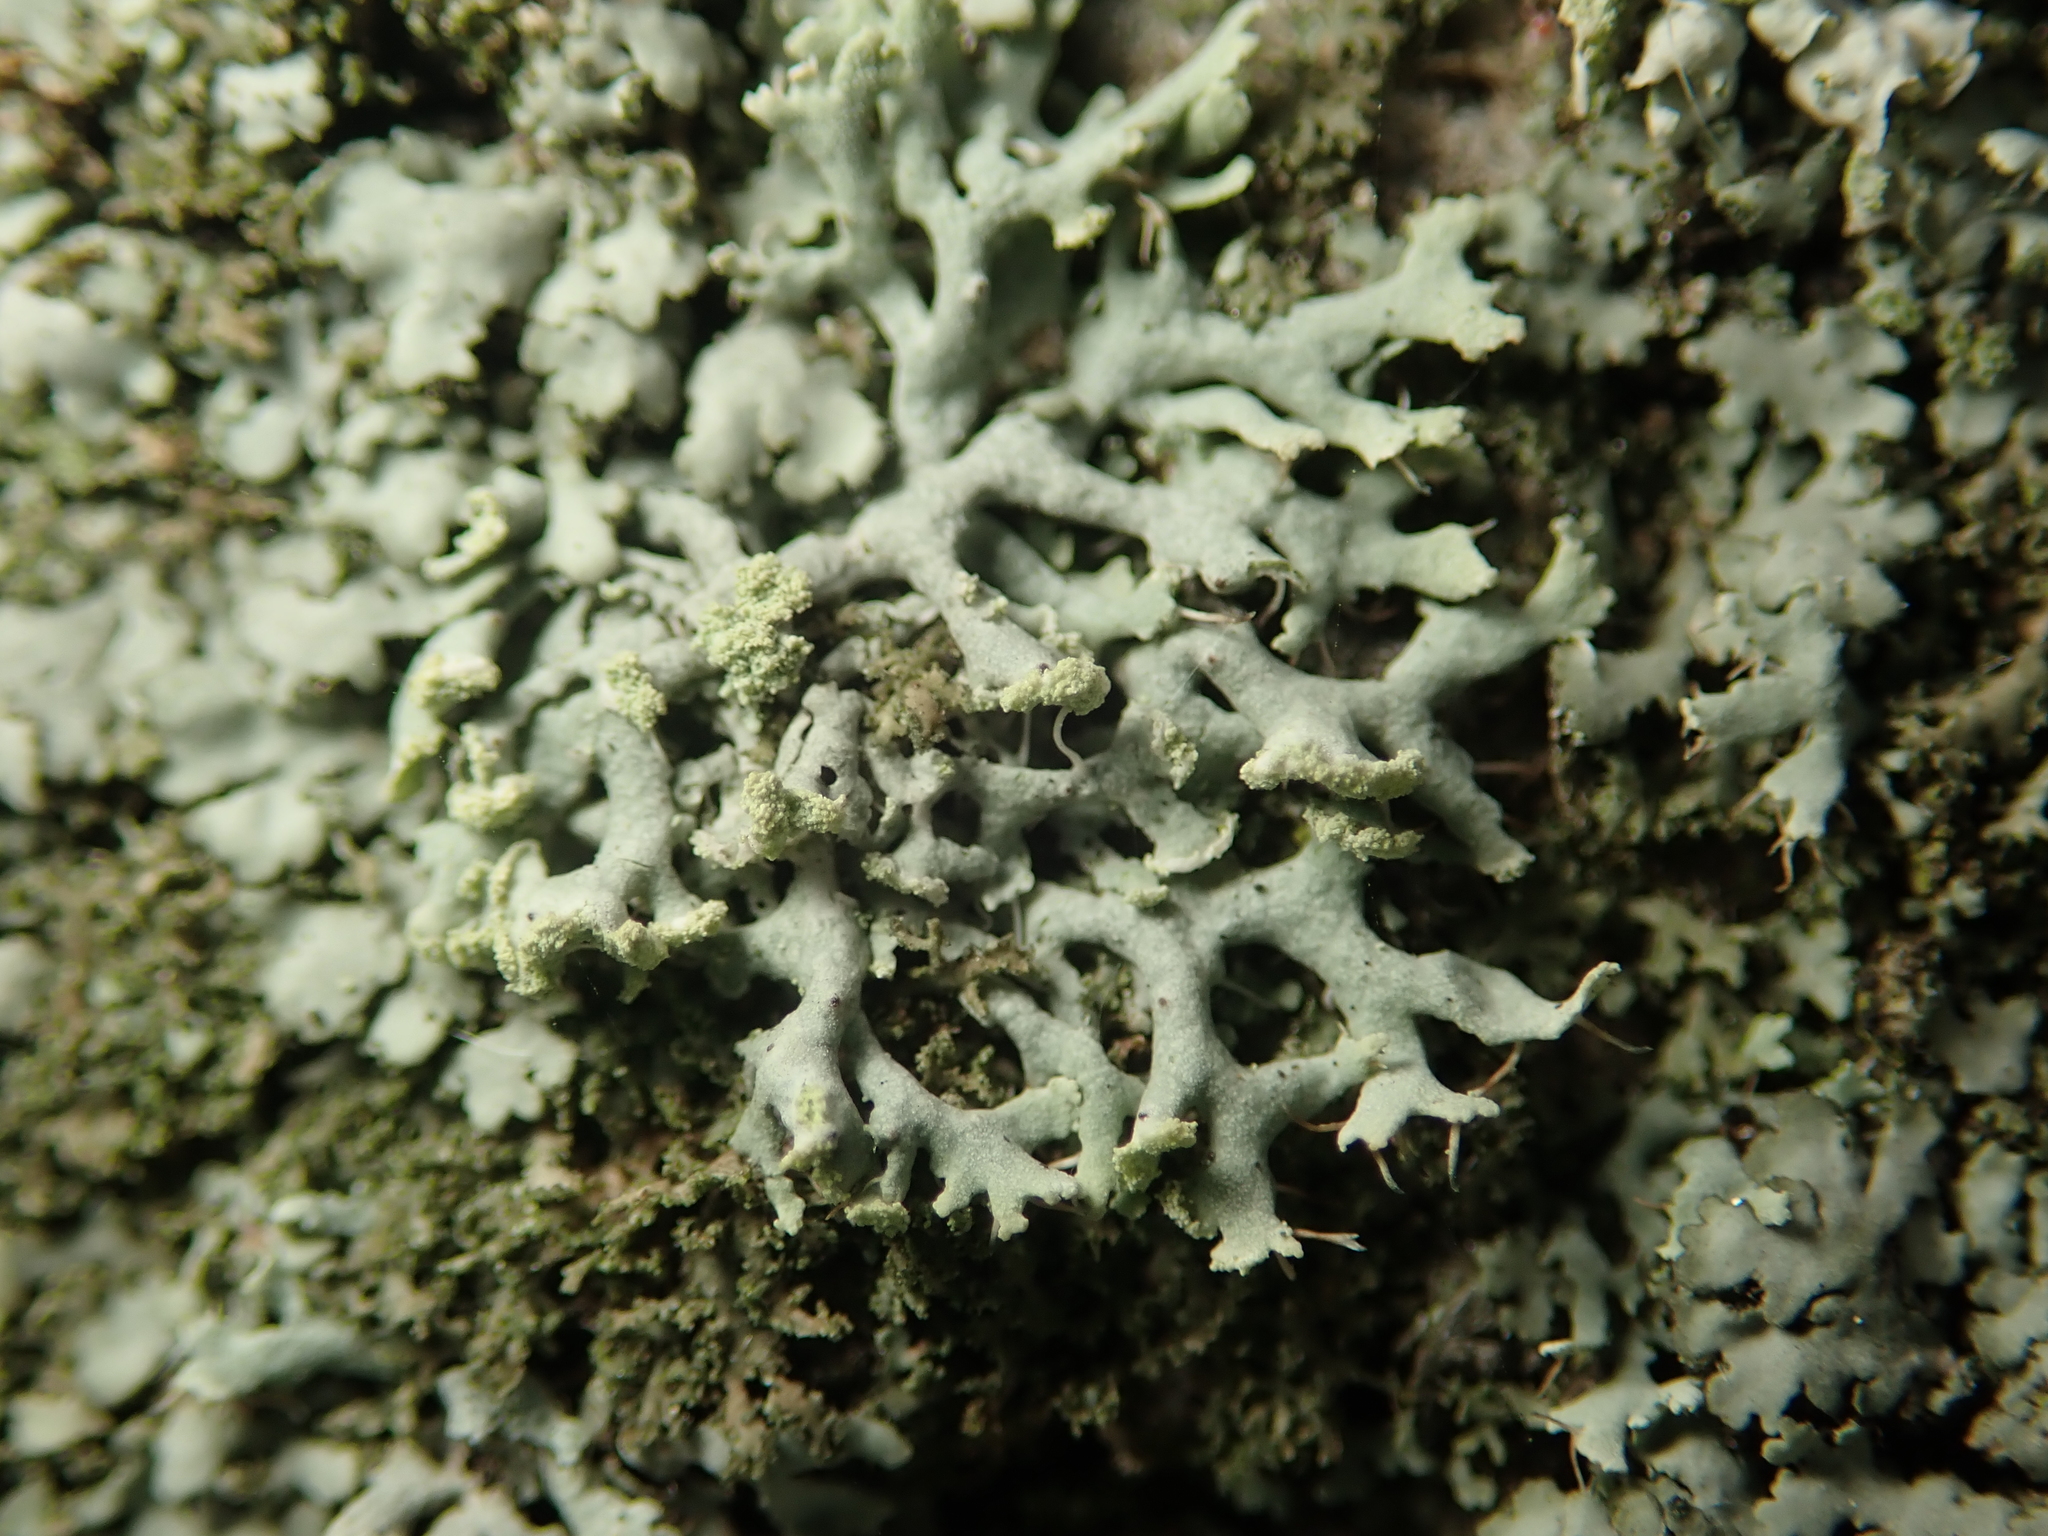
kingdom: Fungi
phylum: Ascomycota
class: Lecanoromycetes
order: Caliciales
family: Physciaceae
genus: Physcia
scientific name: Physcia tenella
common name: Fringed rosette lichen
